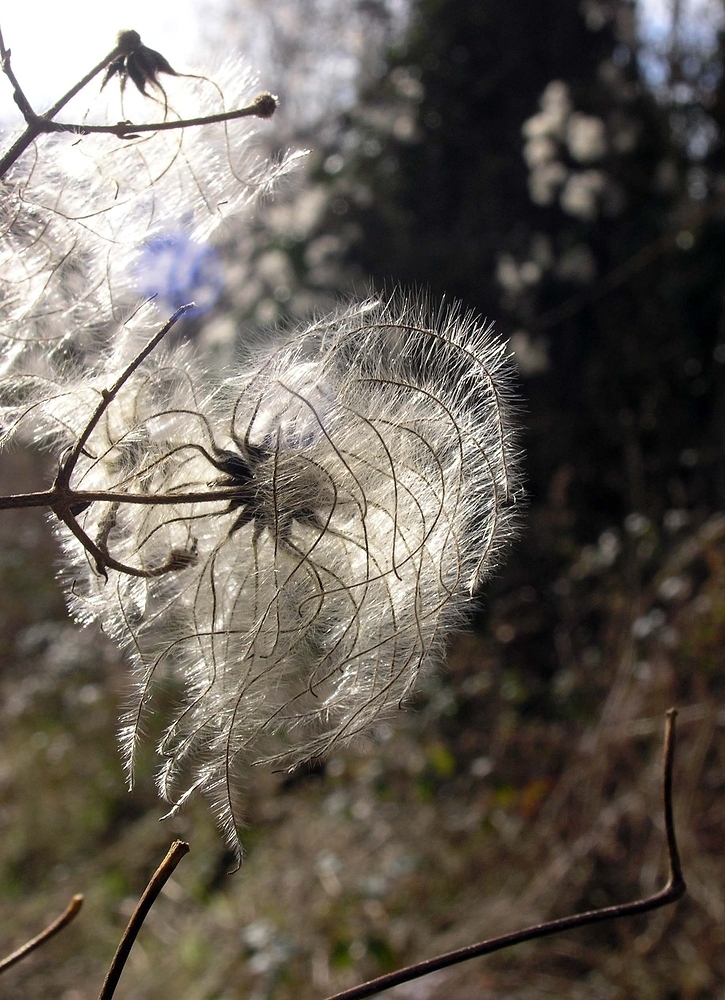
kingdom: Plantae
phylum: Tracheophyta
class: Magnoliopsida
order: Ranunculales
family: Ranunculaceae
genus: Clematis
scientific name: Clematis vitalba
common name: Evergreen clematis
